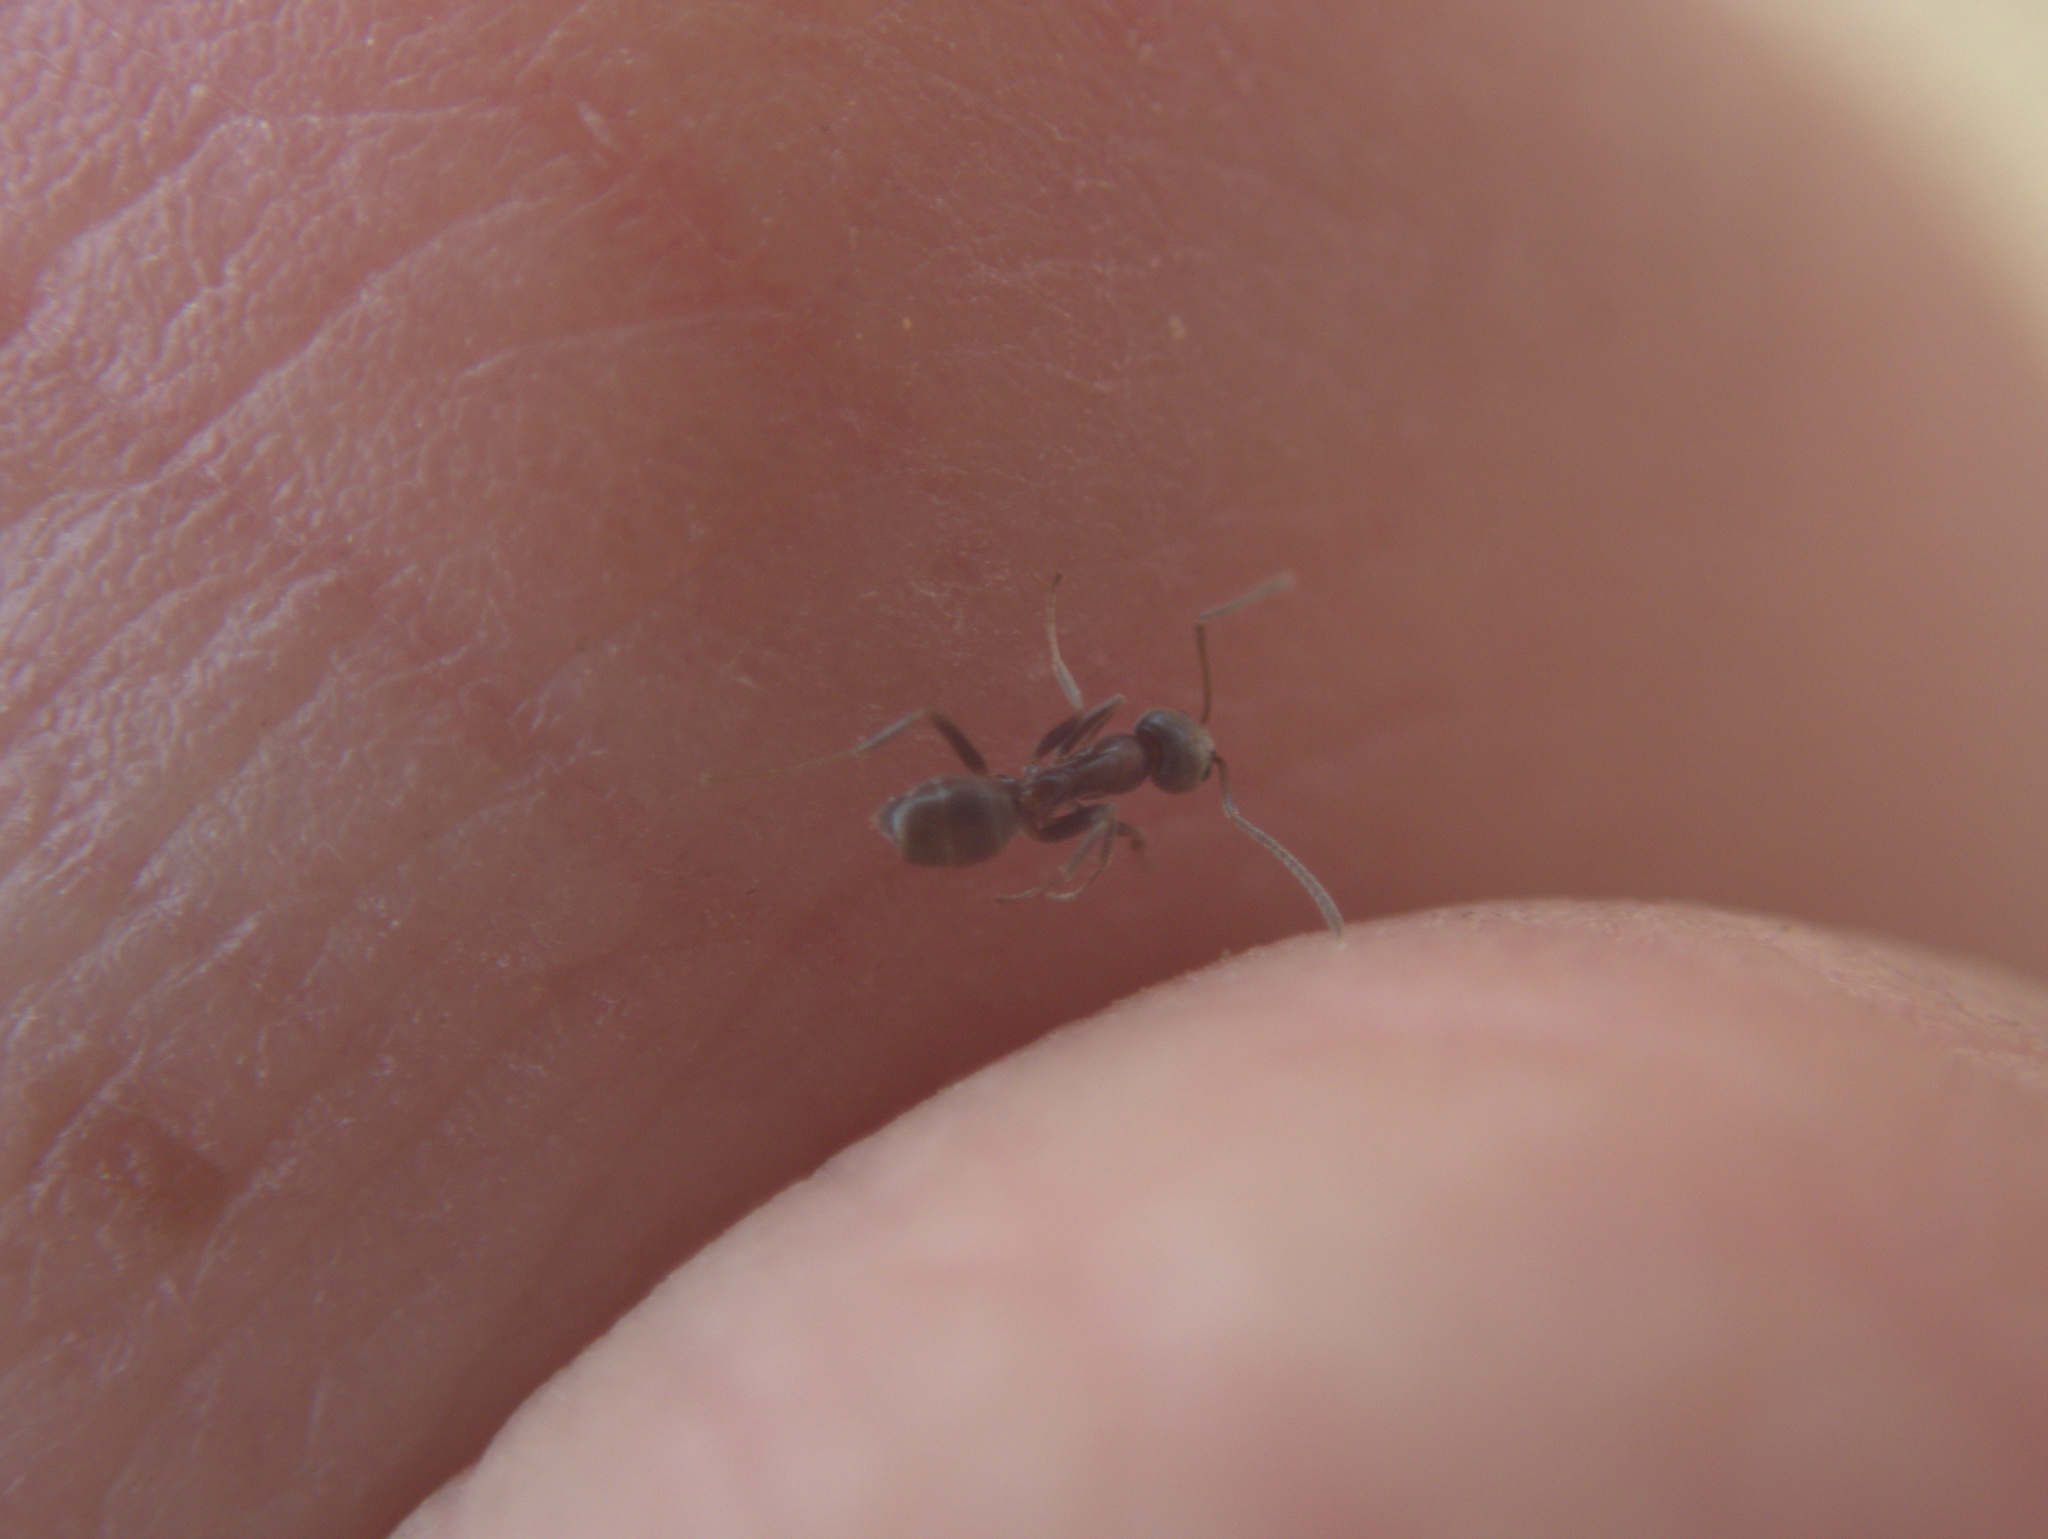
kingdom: Animalia
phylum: Arthropoda
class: Insecta
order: Hymenoptera
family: Formicidae
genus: Linepithema
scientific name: Linepithema humile
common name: Argentine ant
